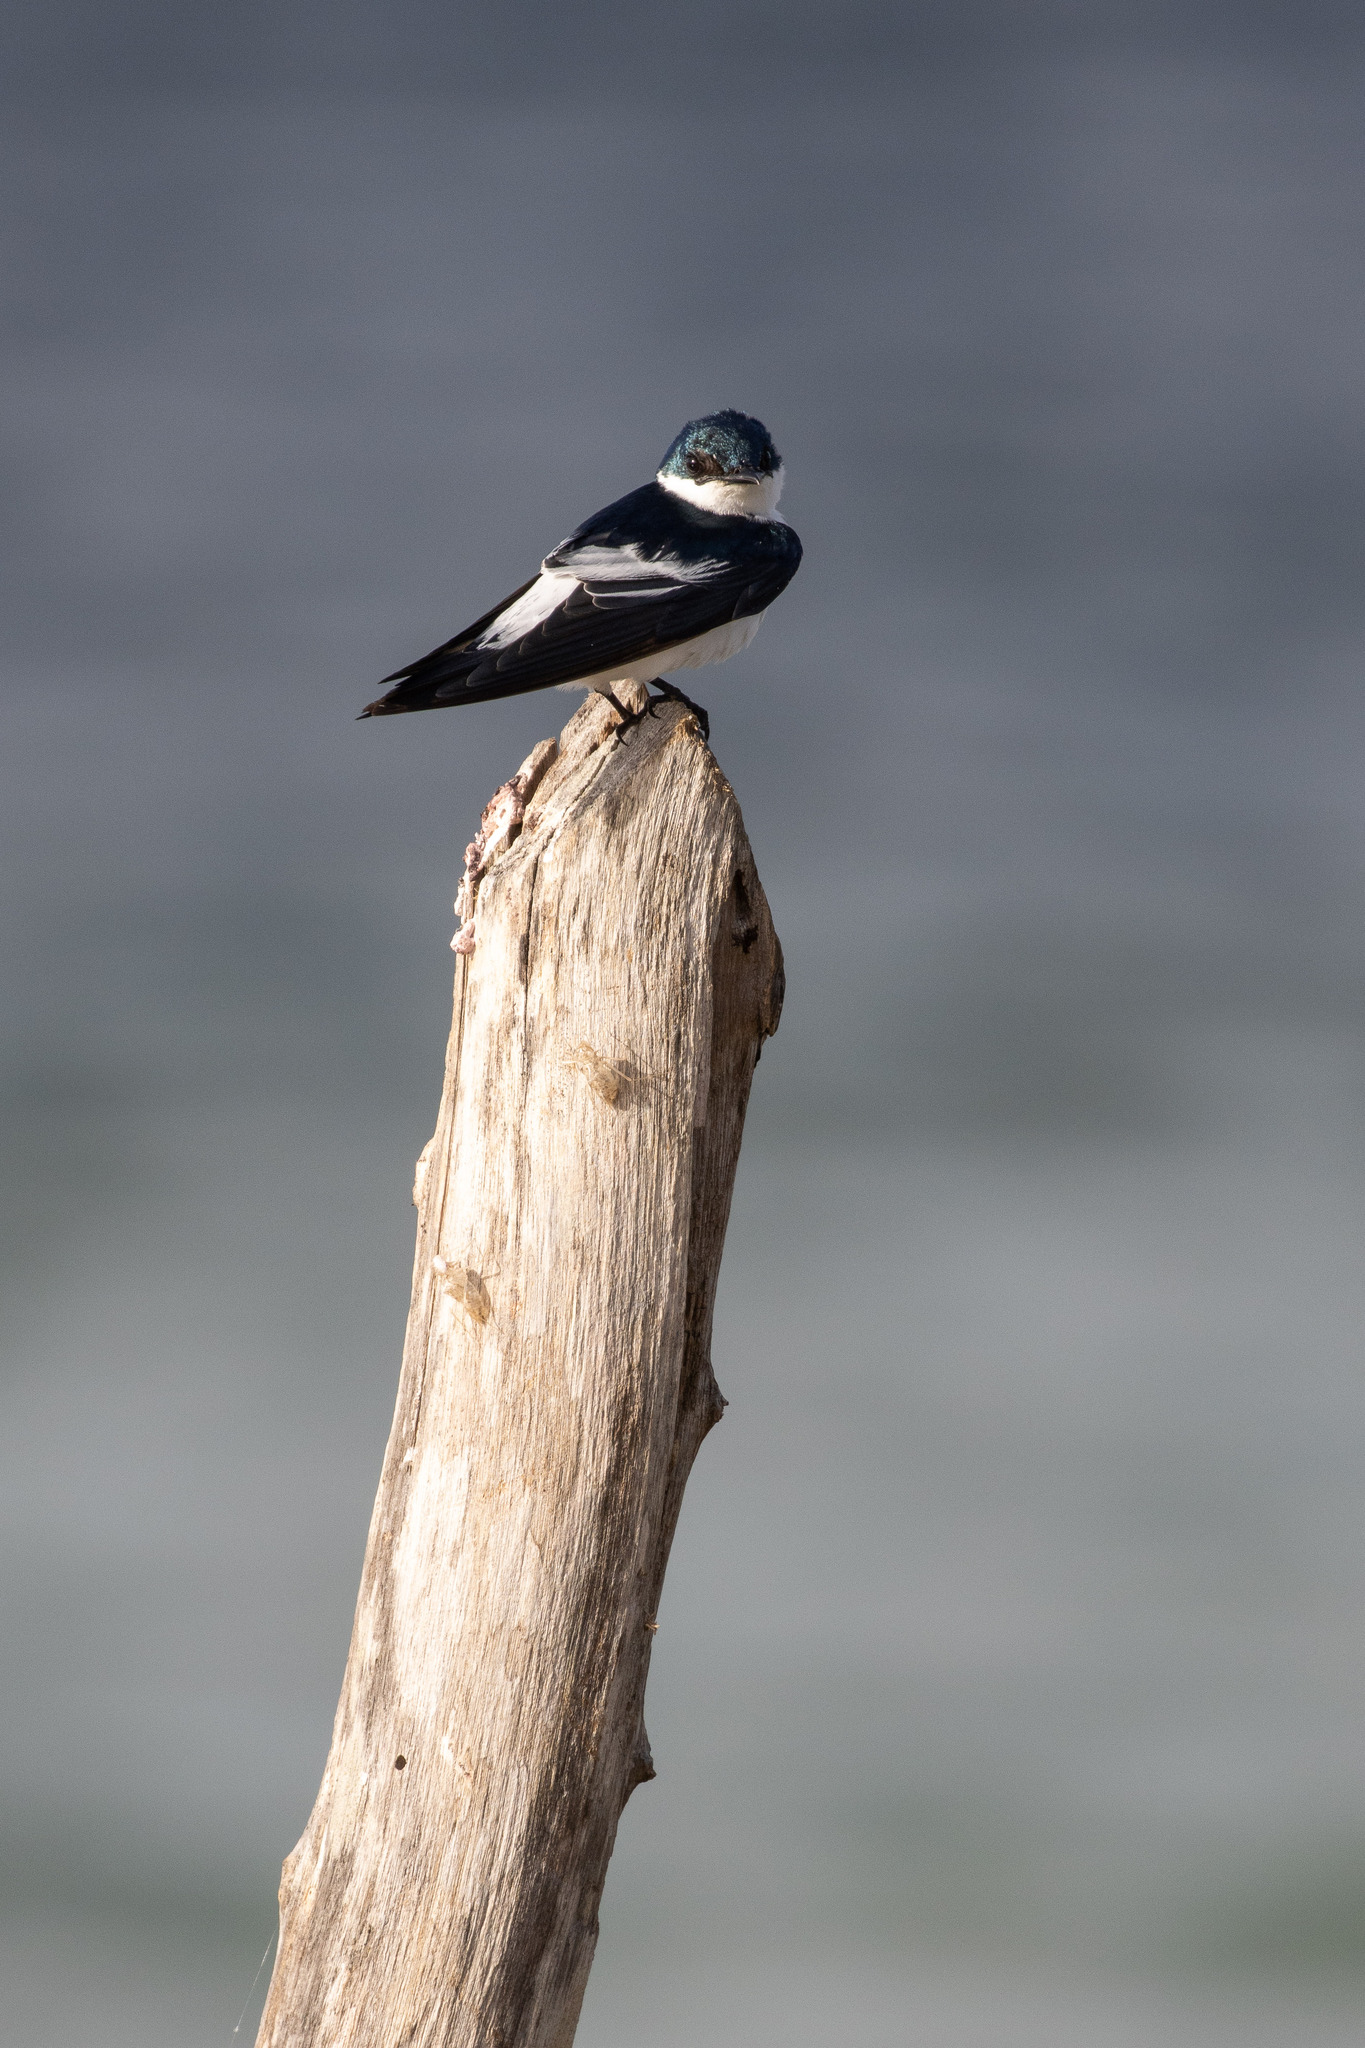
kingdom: Animalia
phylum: Chordata
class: Aves
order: Passeriformes
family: Hirundinidae
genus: Tachycineta
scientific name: Tachycineta albiventer
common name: White-winged swallow
